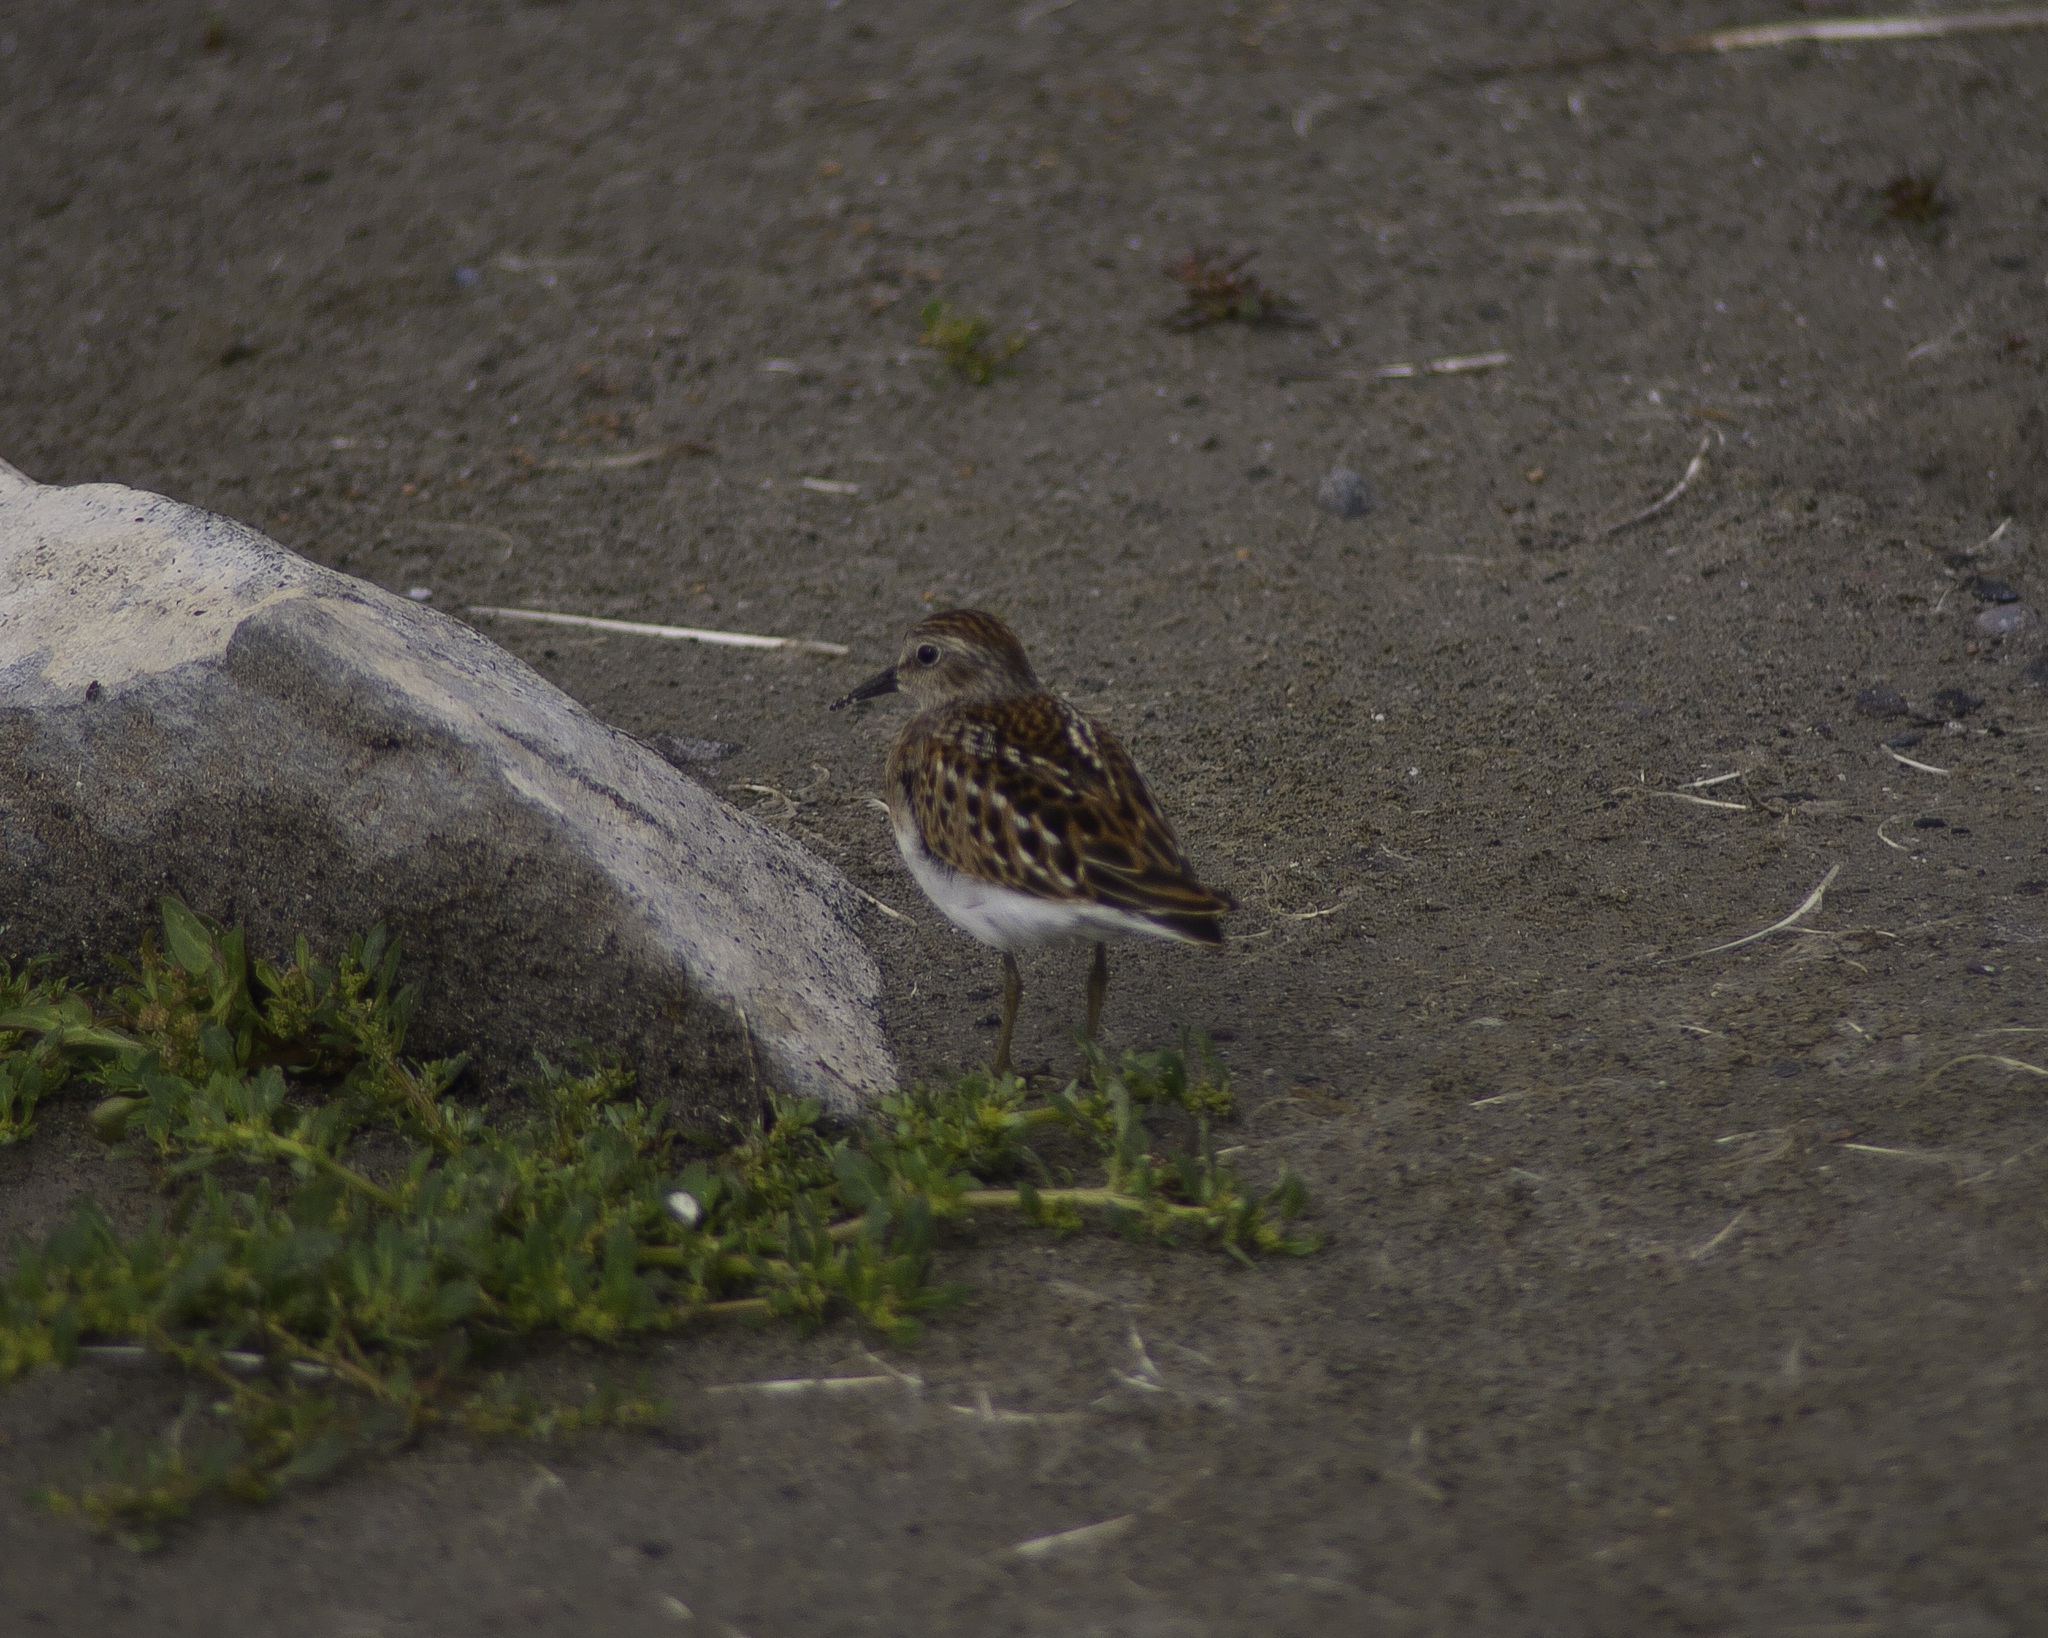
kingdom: Animalia
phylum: Chordata
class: Aves
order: Charadriiformes
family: Scolopacidae
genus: Calidris
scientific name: Calidris minutilla
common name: Least sandpiper
